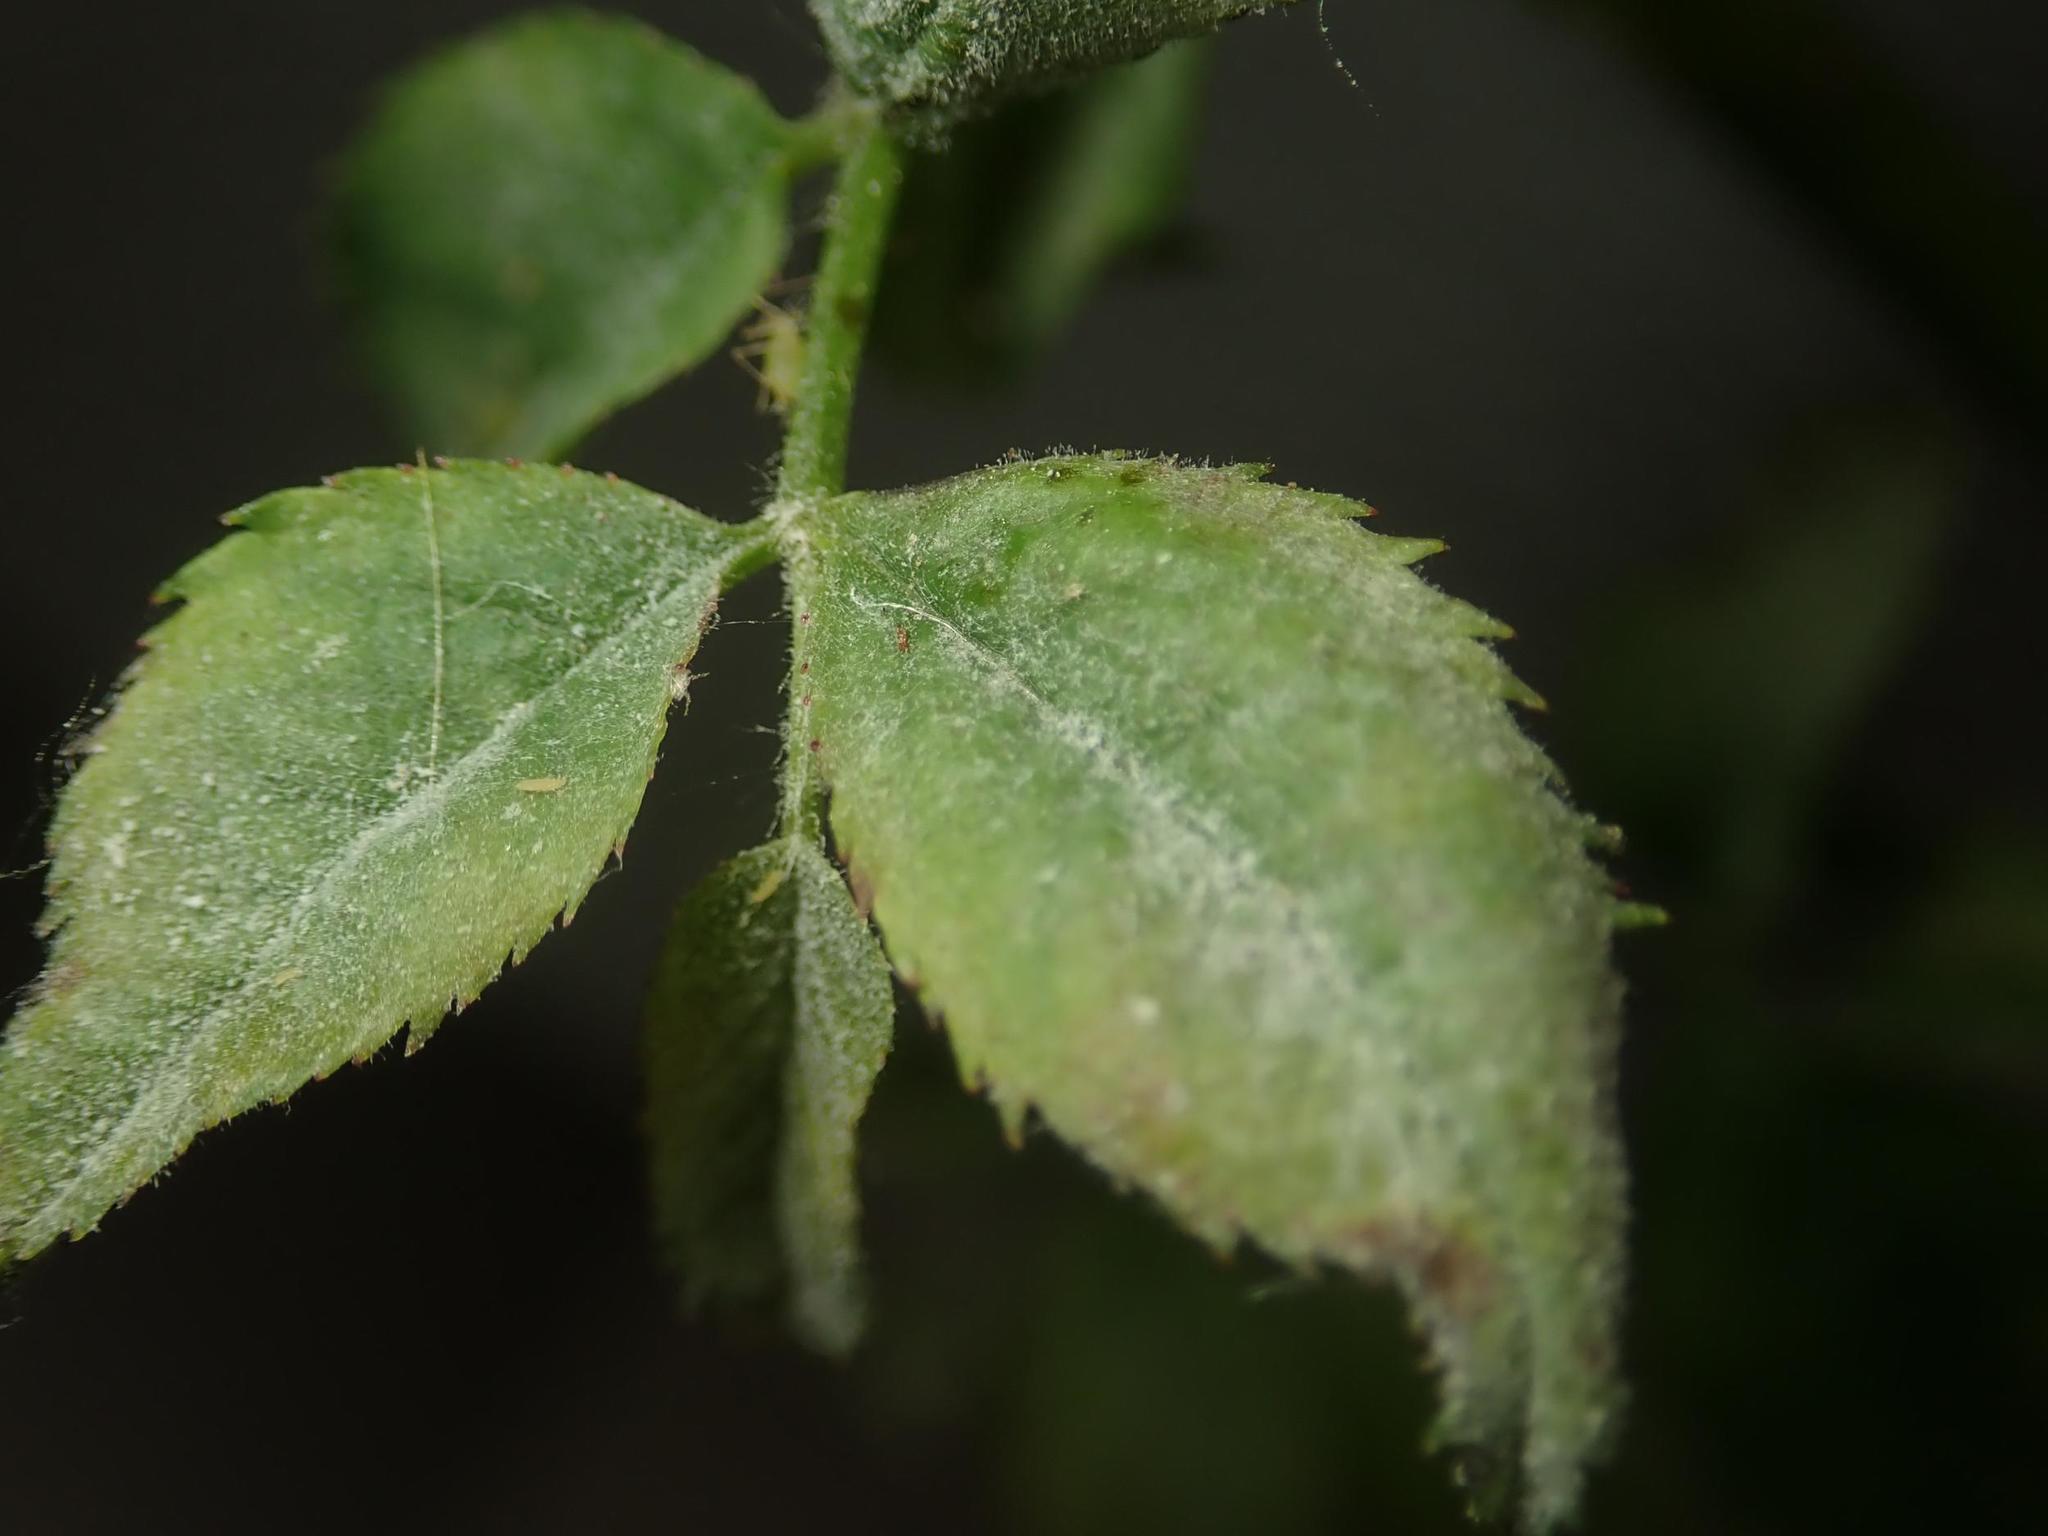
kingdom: Fungi
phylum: Ascomycota
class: Leotiomycetes
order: Helotiales
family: Erysiphaceae
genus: Podosphaera
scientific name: Podosphaera pannosa
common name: Rose mildew
